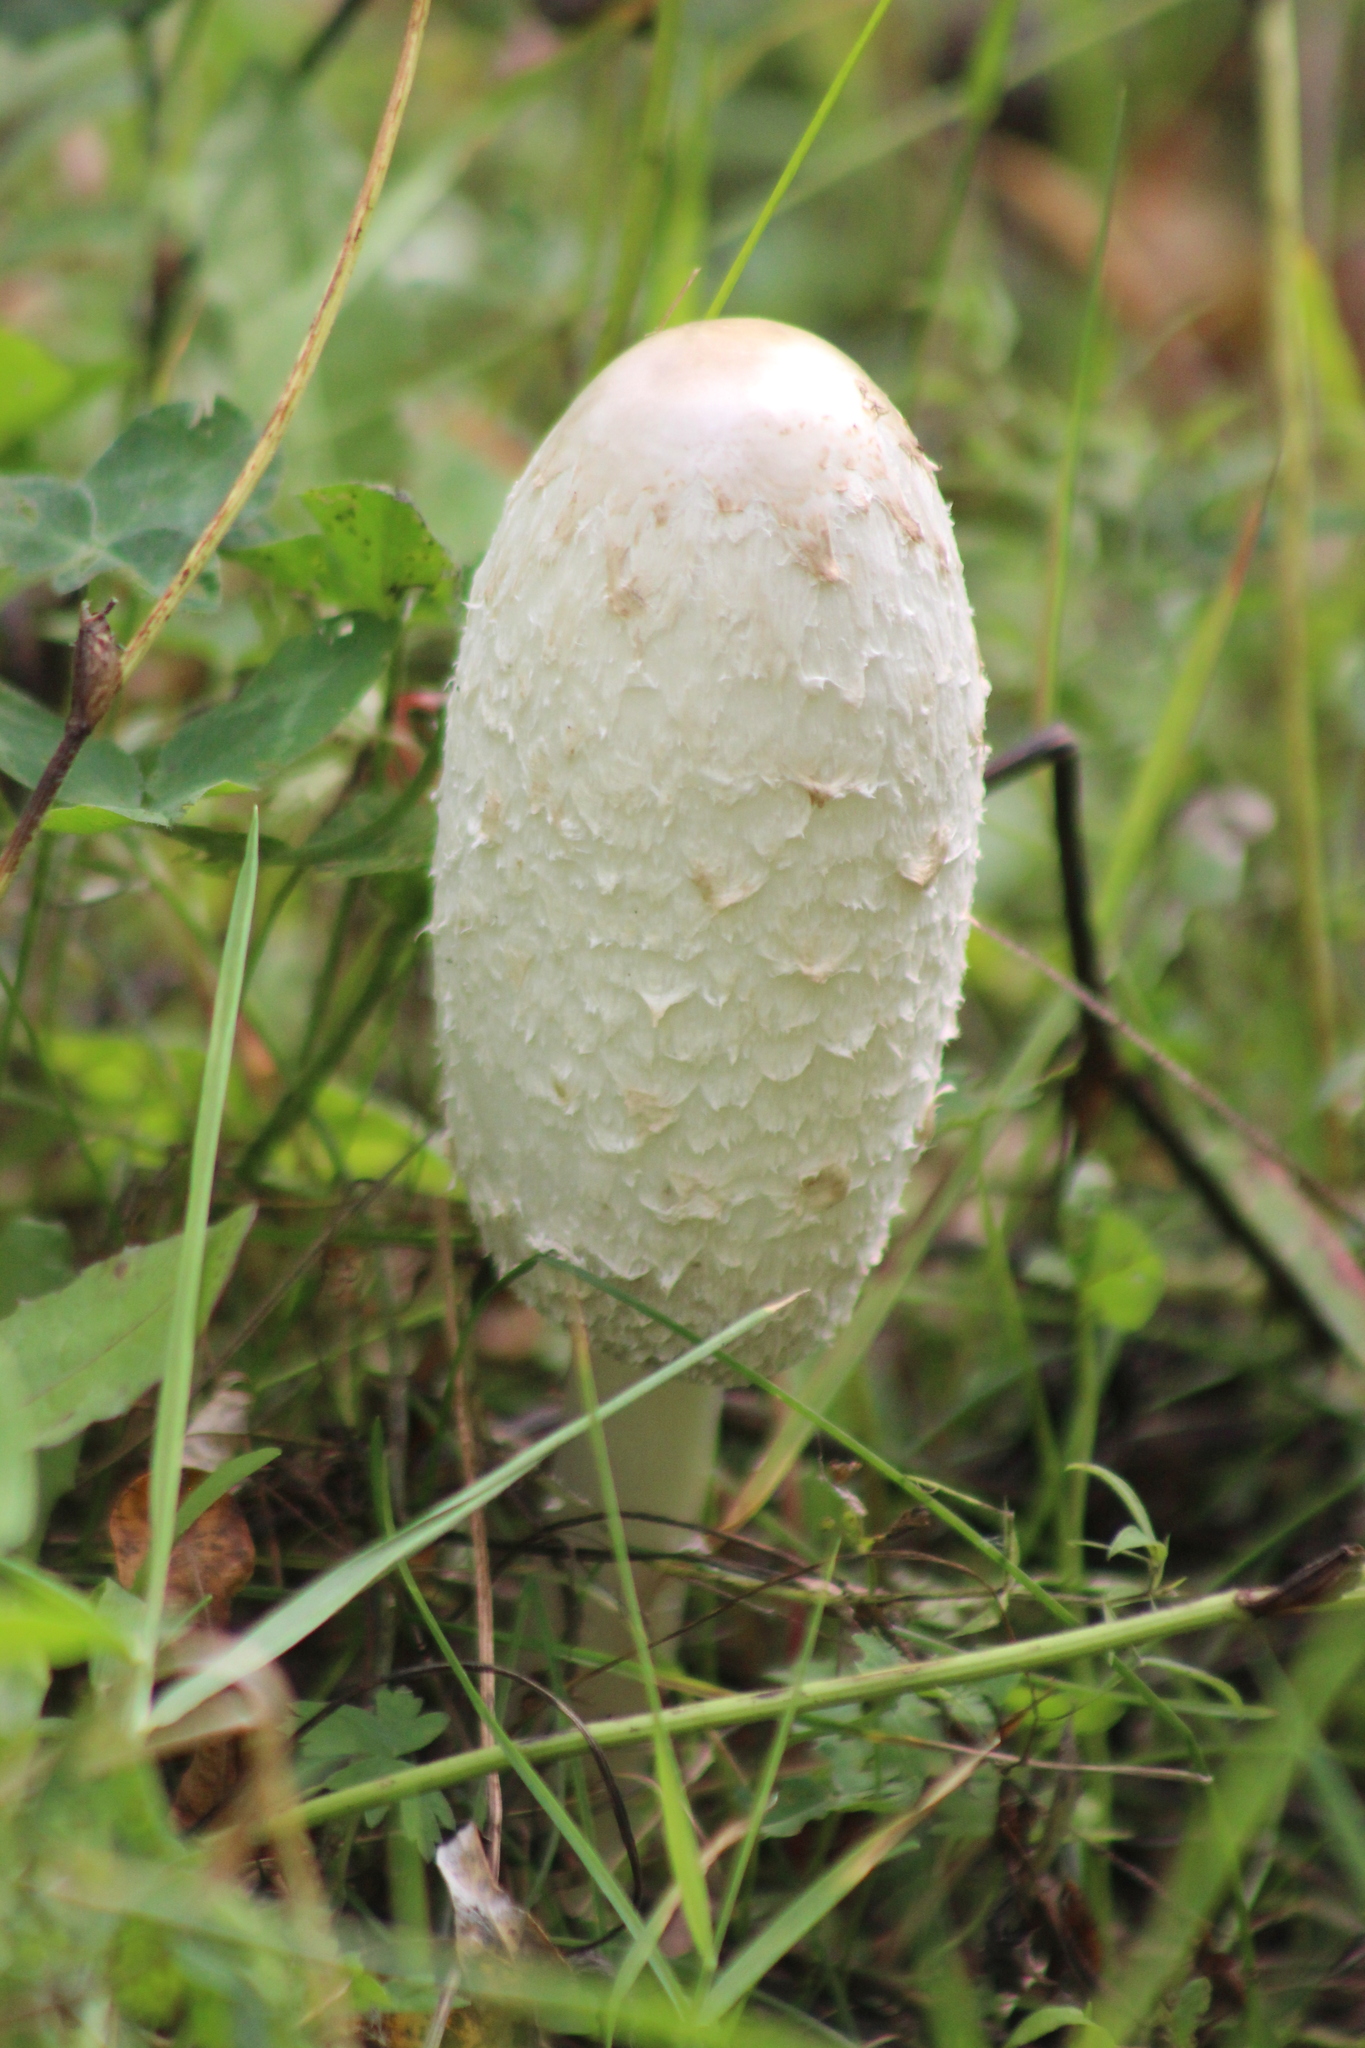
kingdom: Fungi
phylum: Basidiomycota
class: Agaricomycetes
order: Agaricales
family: Agaricaceae
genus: Coprinus
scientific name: Coprinus comatus
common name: Lawyer's wig
